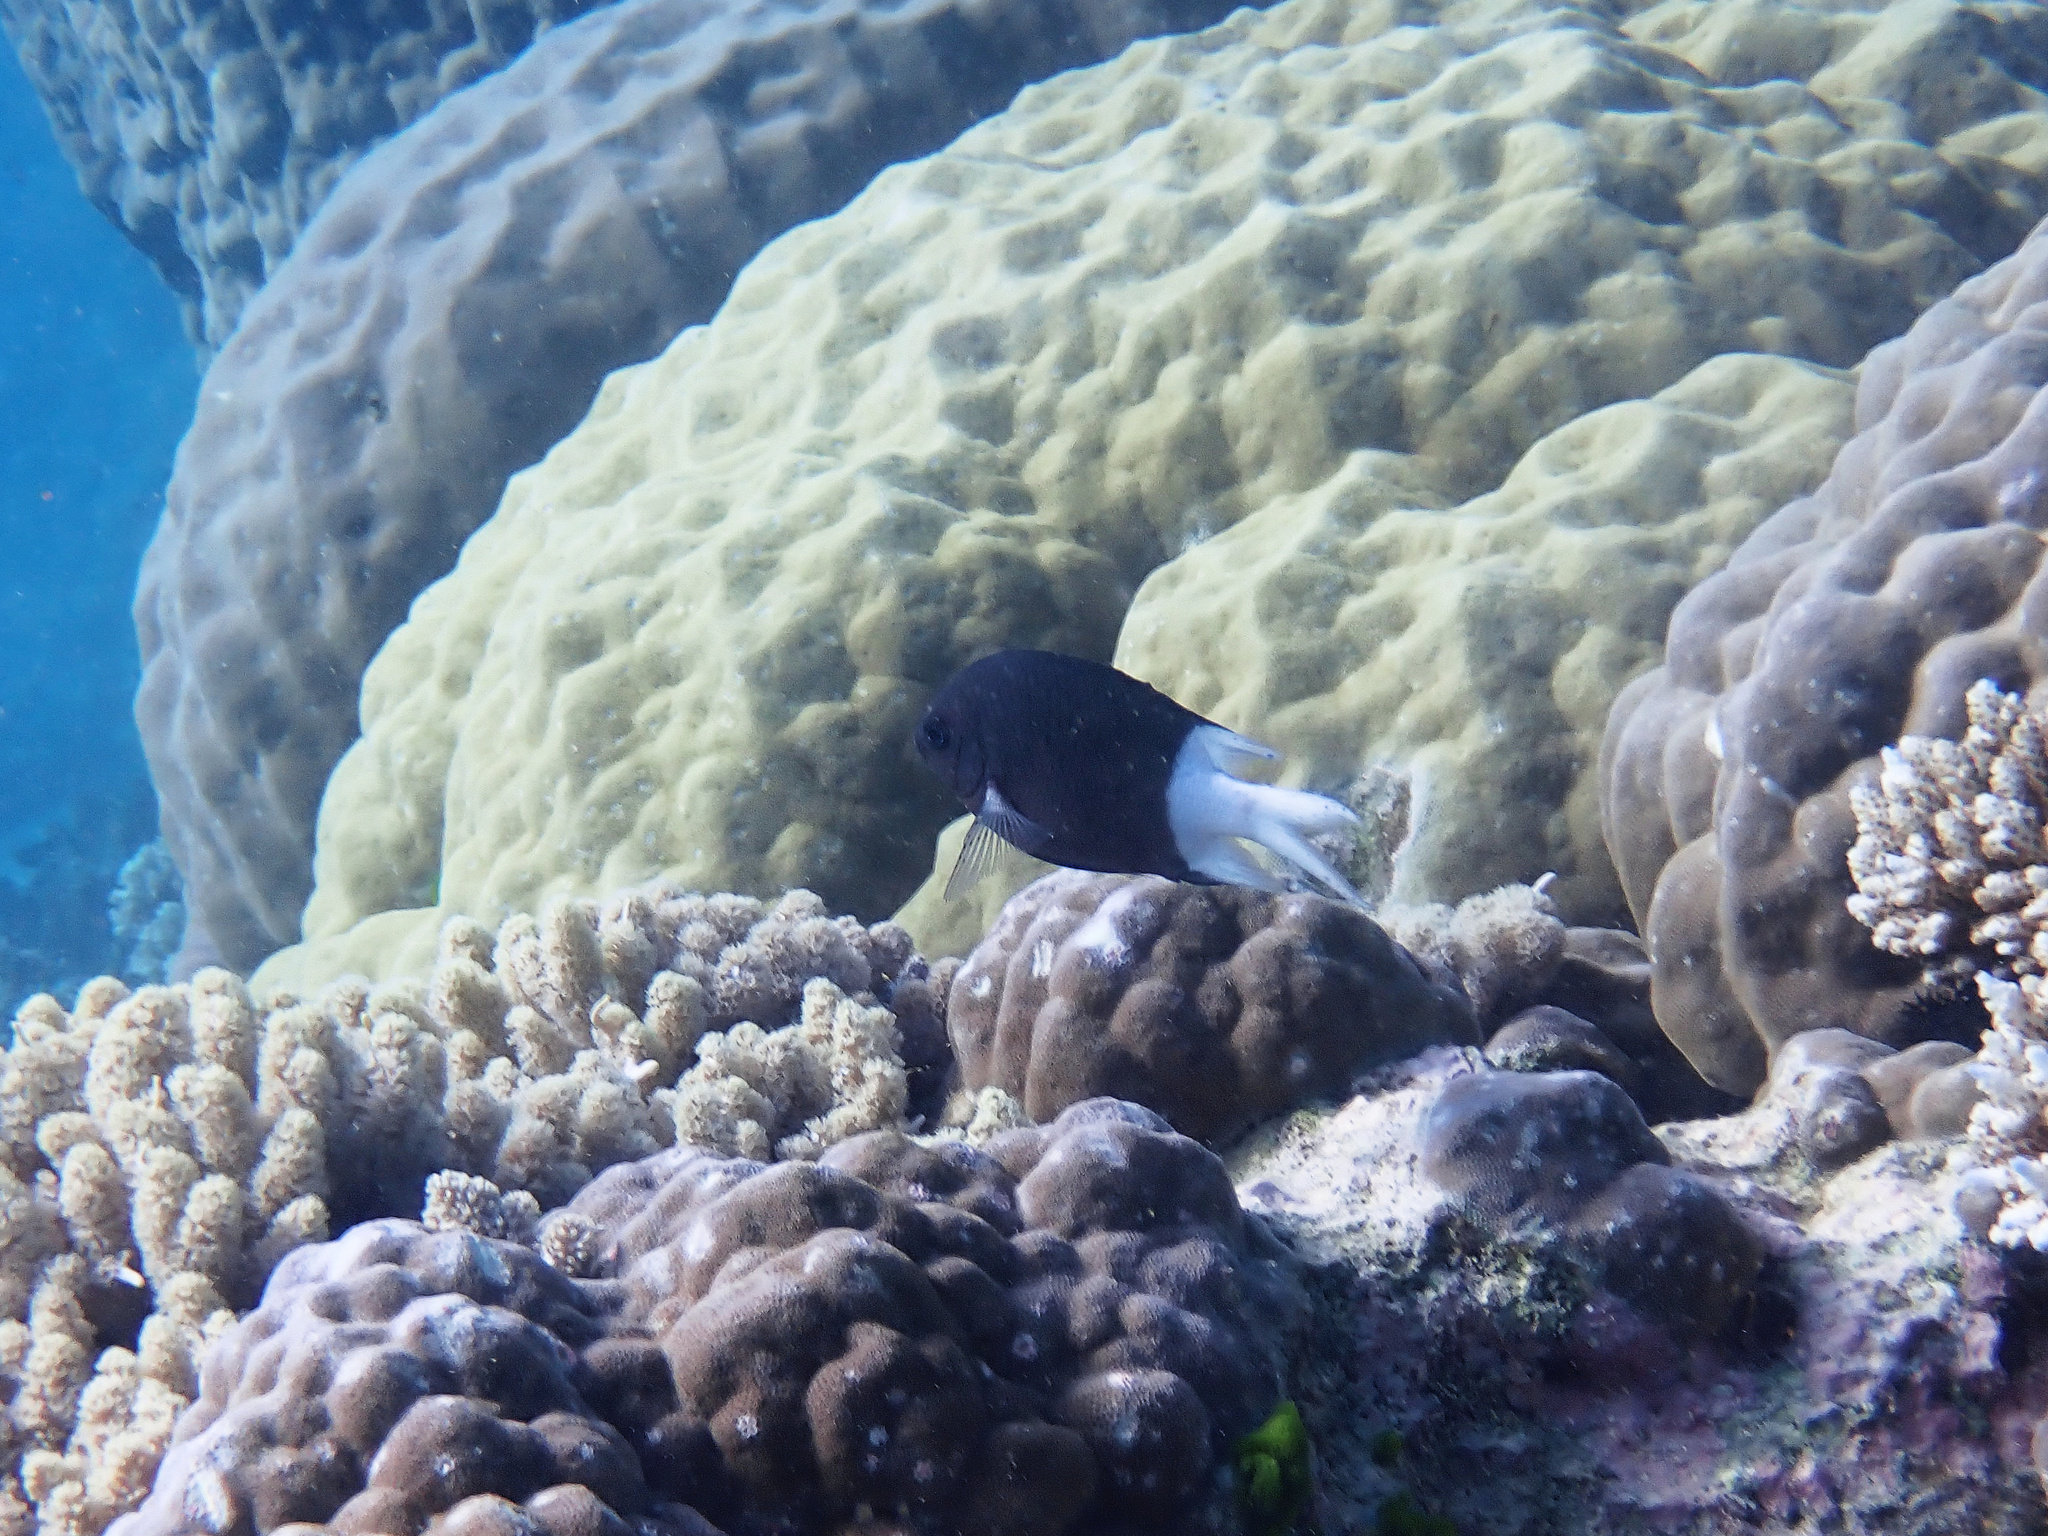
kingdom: Animalia
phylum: Chordata
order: Perciformes
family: Pomacentridae
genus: Acanthochromis
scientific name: Acanthochromis polyacanthus
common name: Spiny chromis
